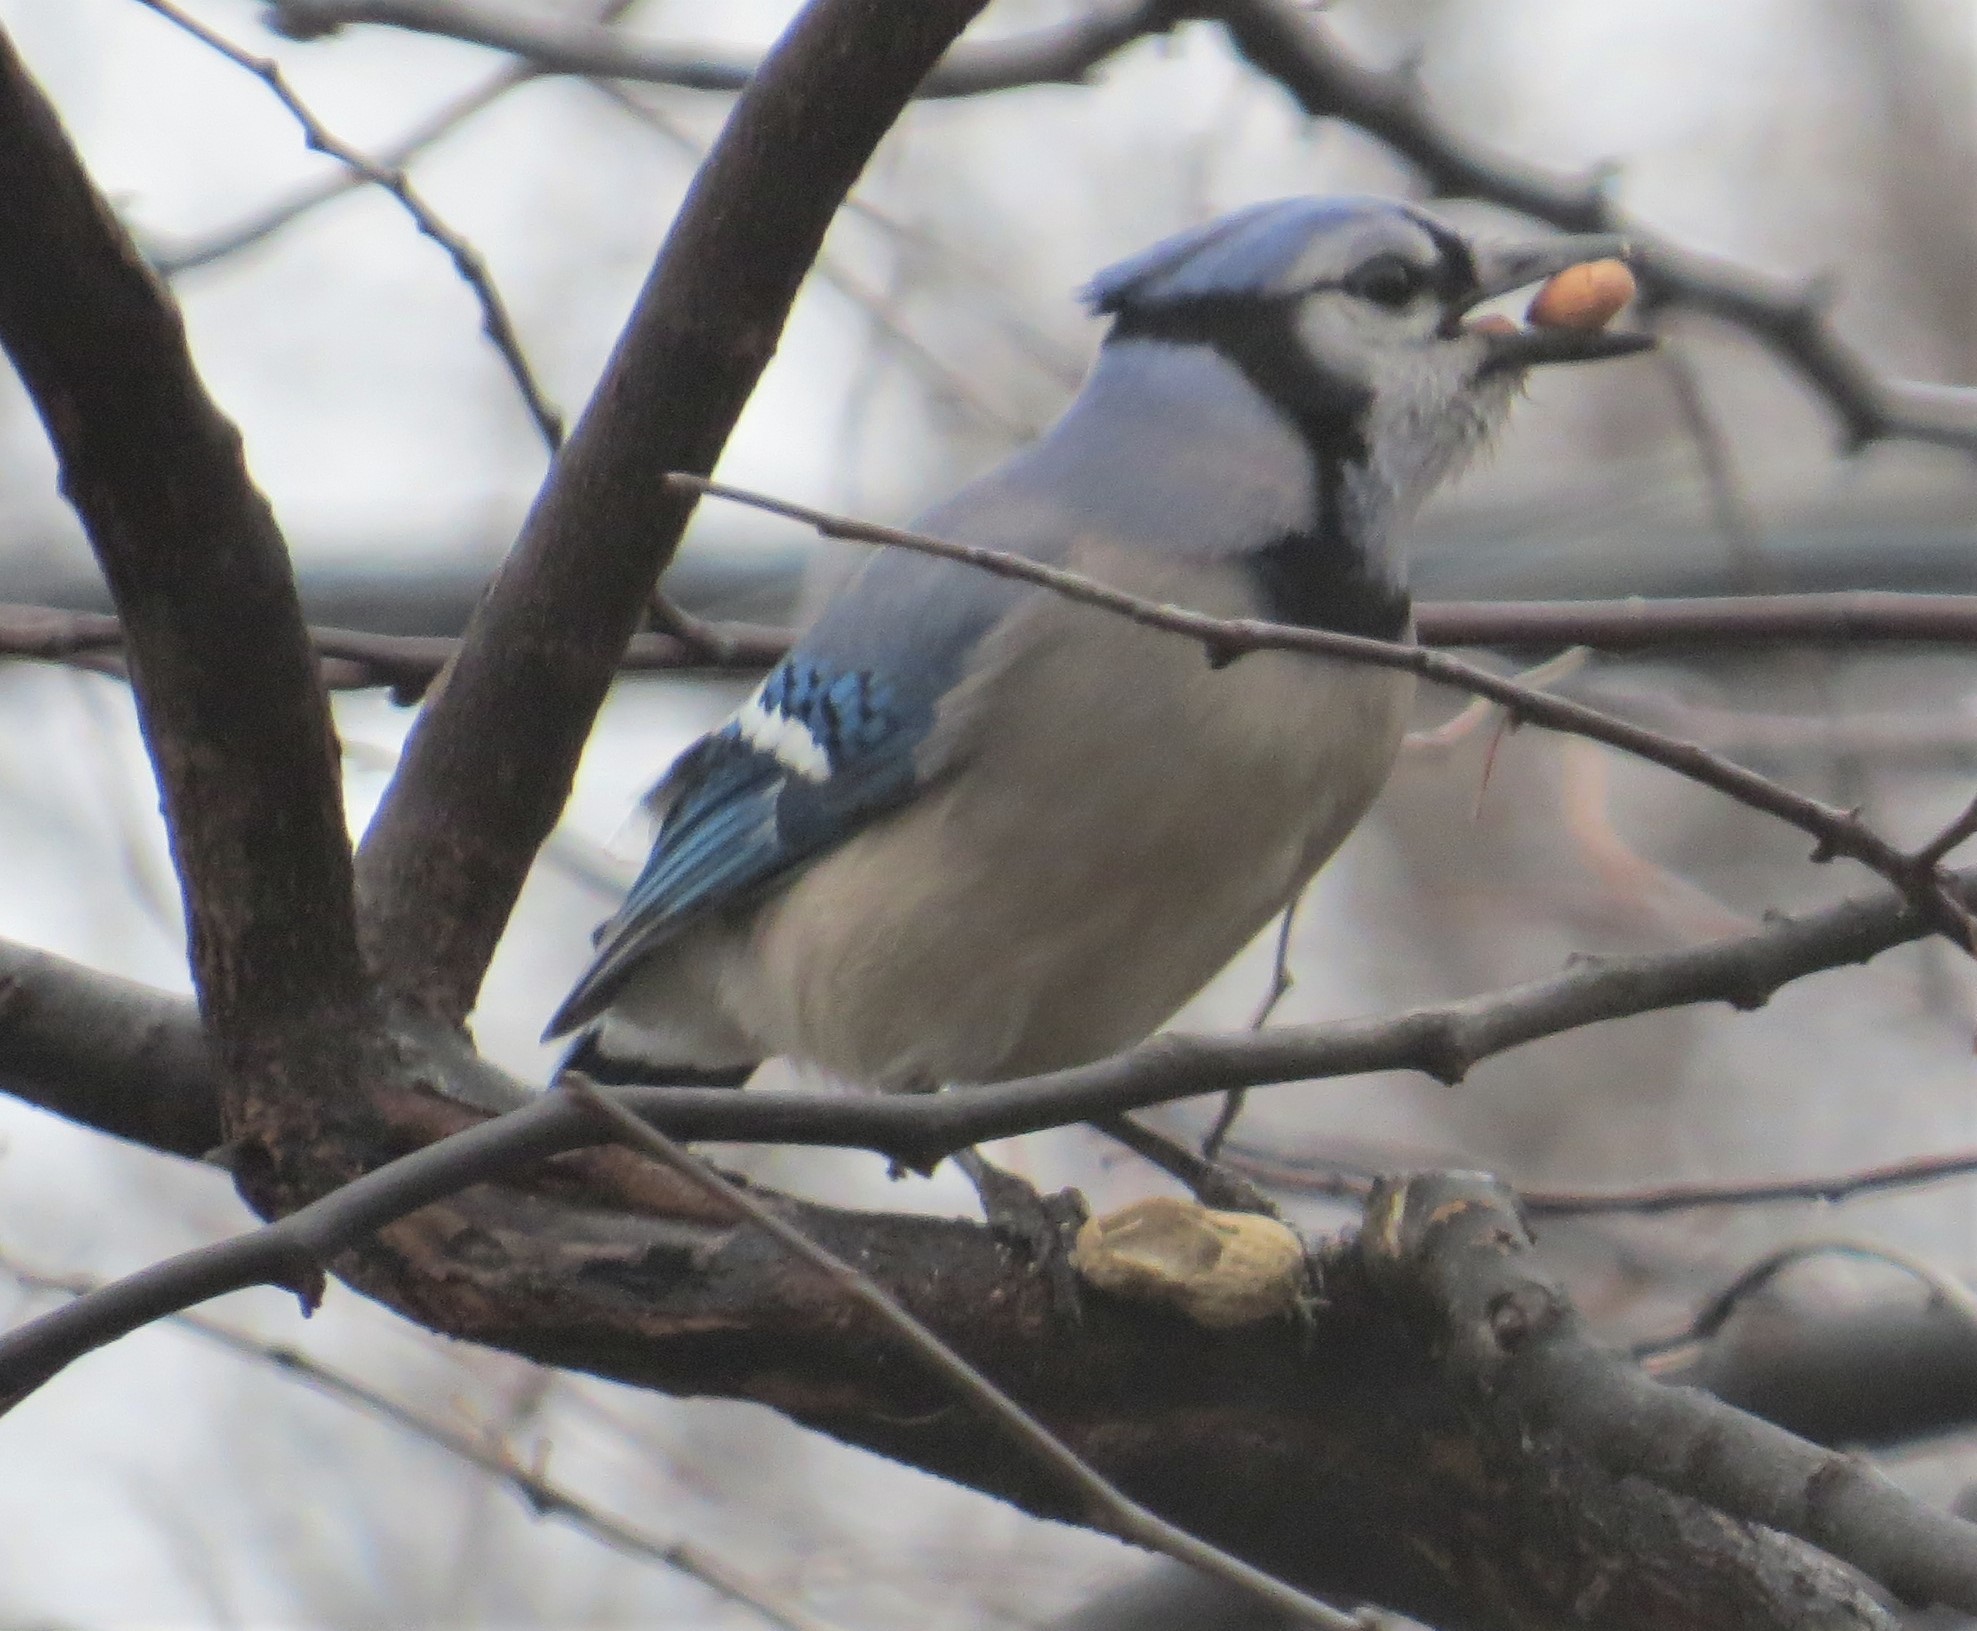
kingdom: Animalia
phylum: Chordata
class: Aves
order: Passeriformes
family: Corvidae
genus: Cyanocitta
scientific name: Cyanocitta cristata
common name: Blue jay
